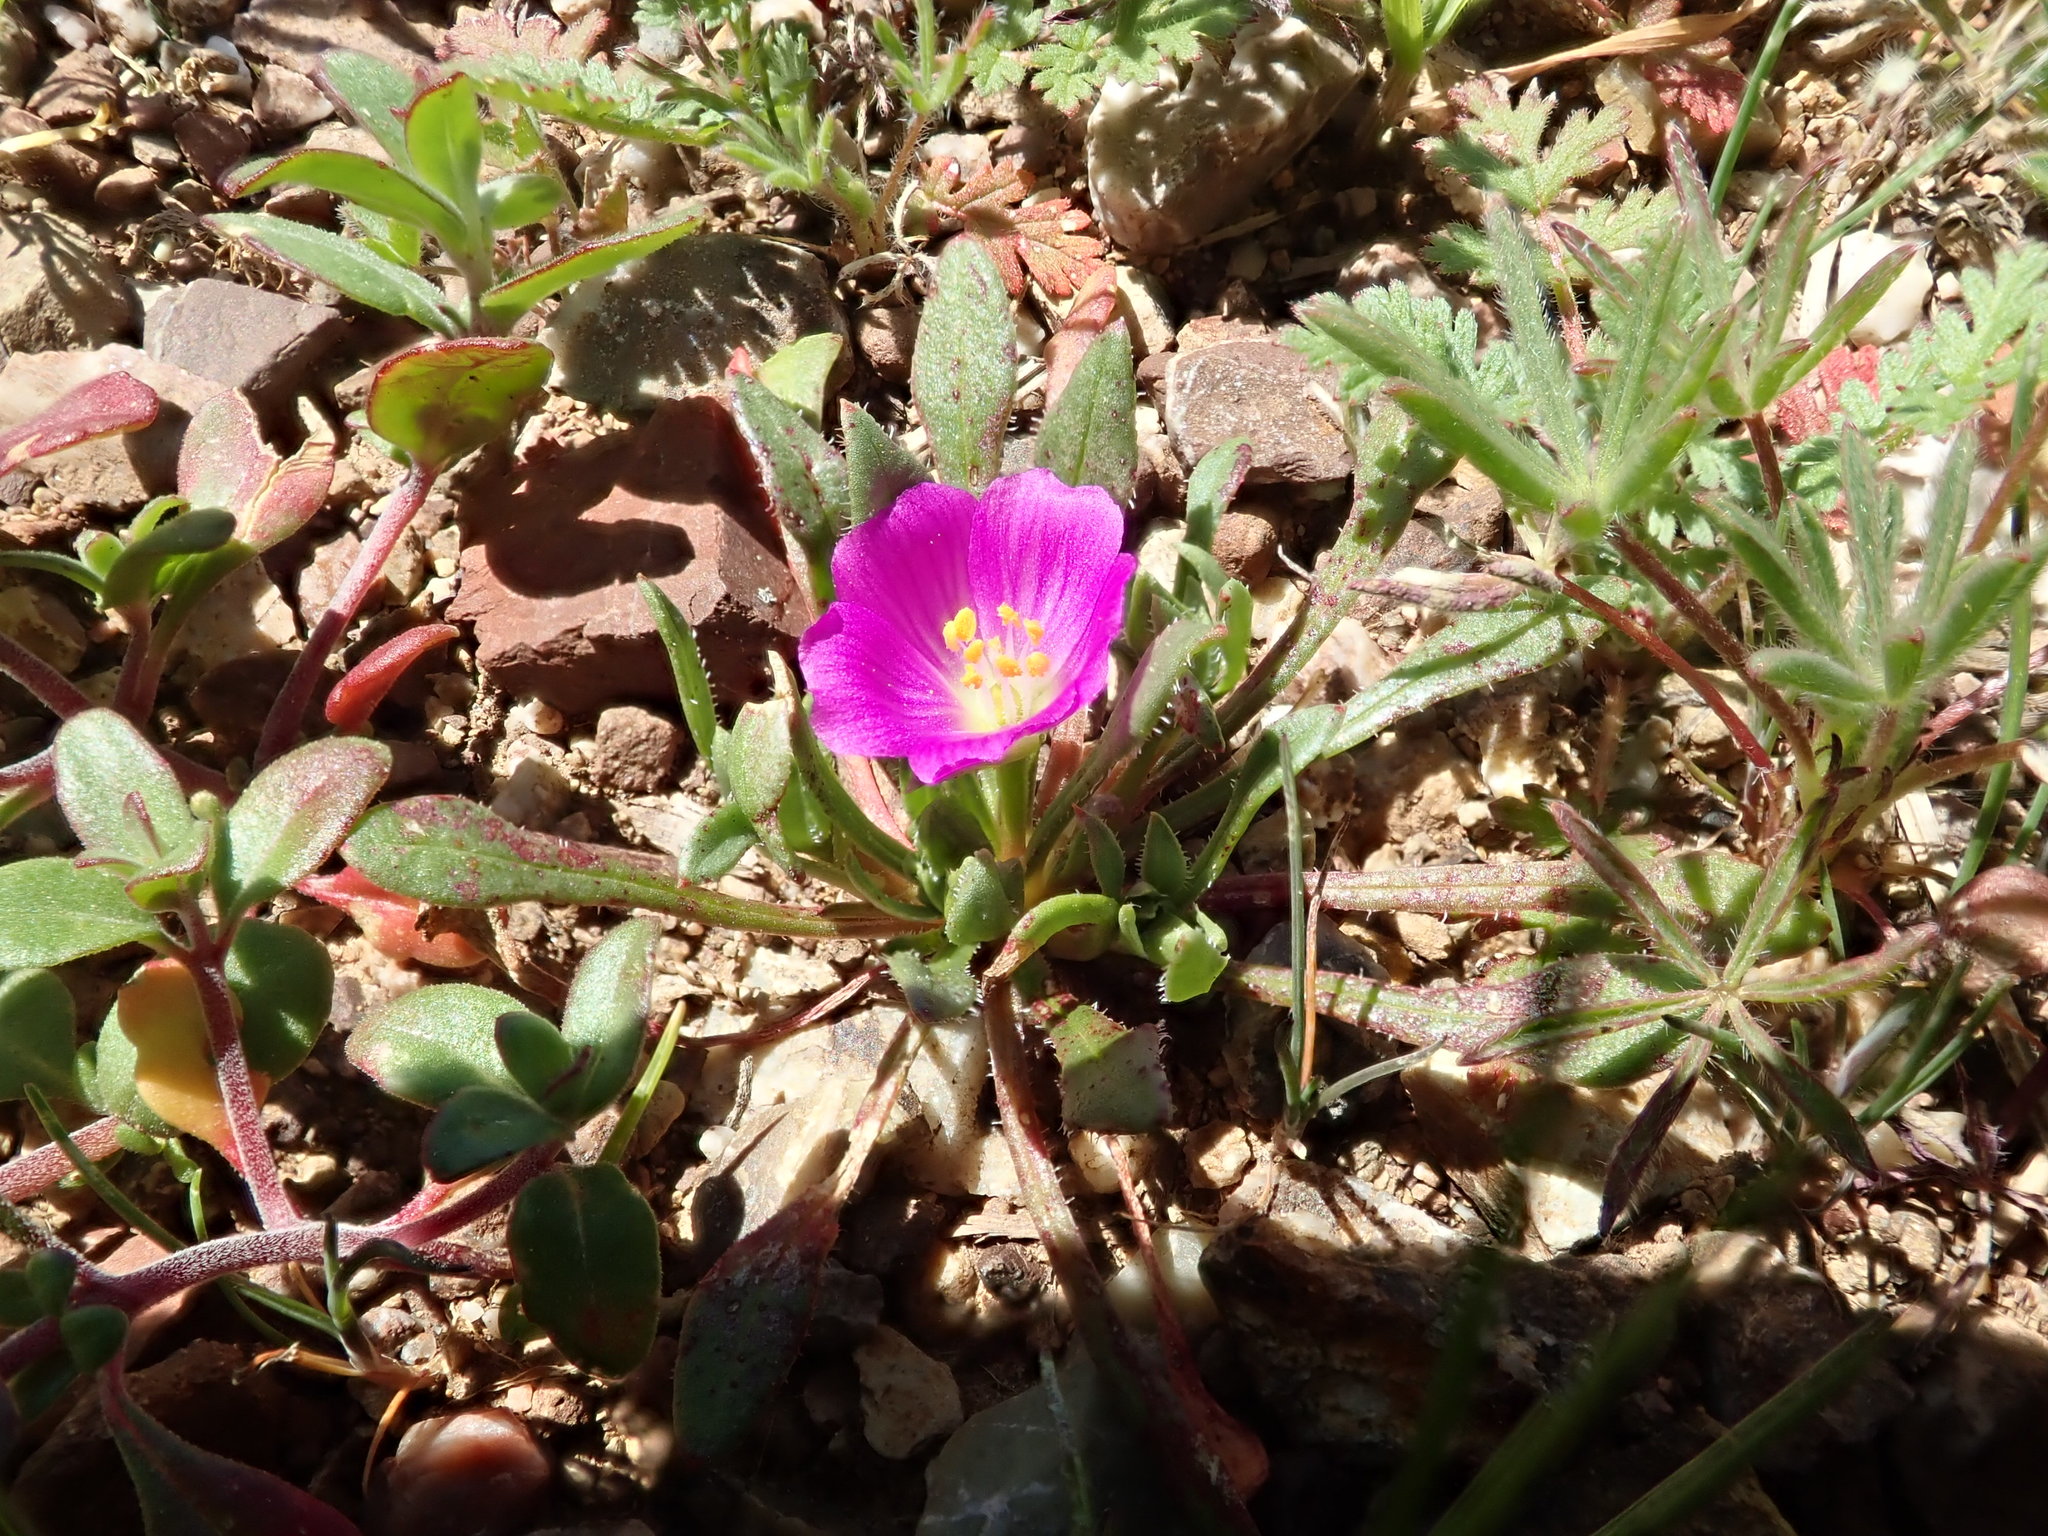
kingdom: Plantae
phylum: Tracheophyta
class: Magnoliopsida
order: Caryophyllales
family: Montiaceae
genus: Calandrinia
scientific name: Calandrinia menziesii
